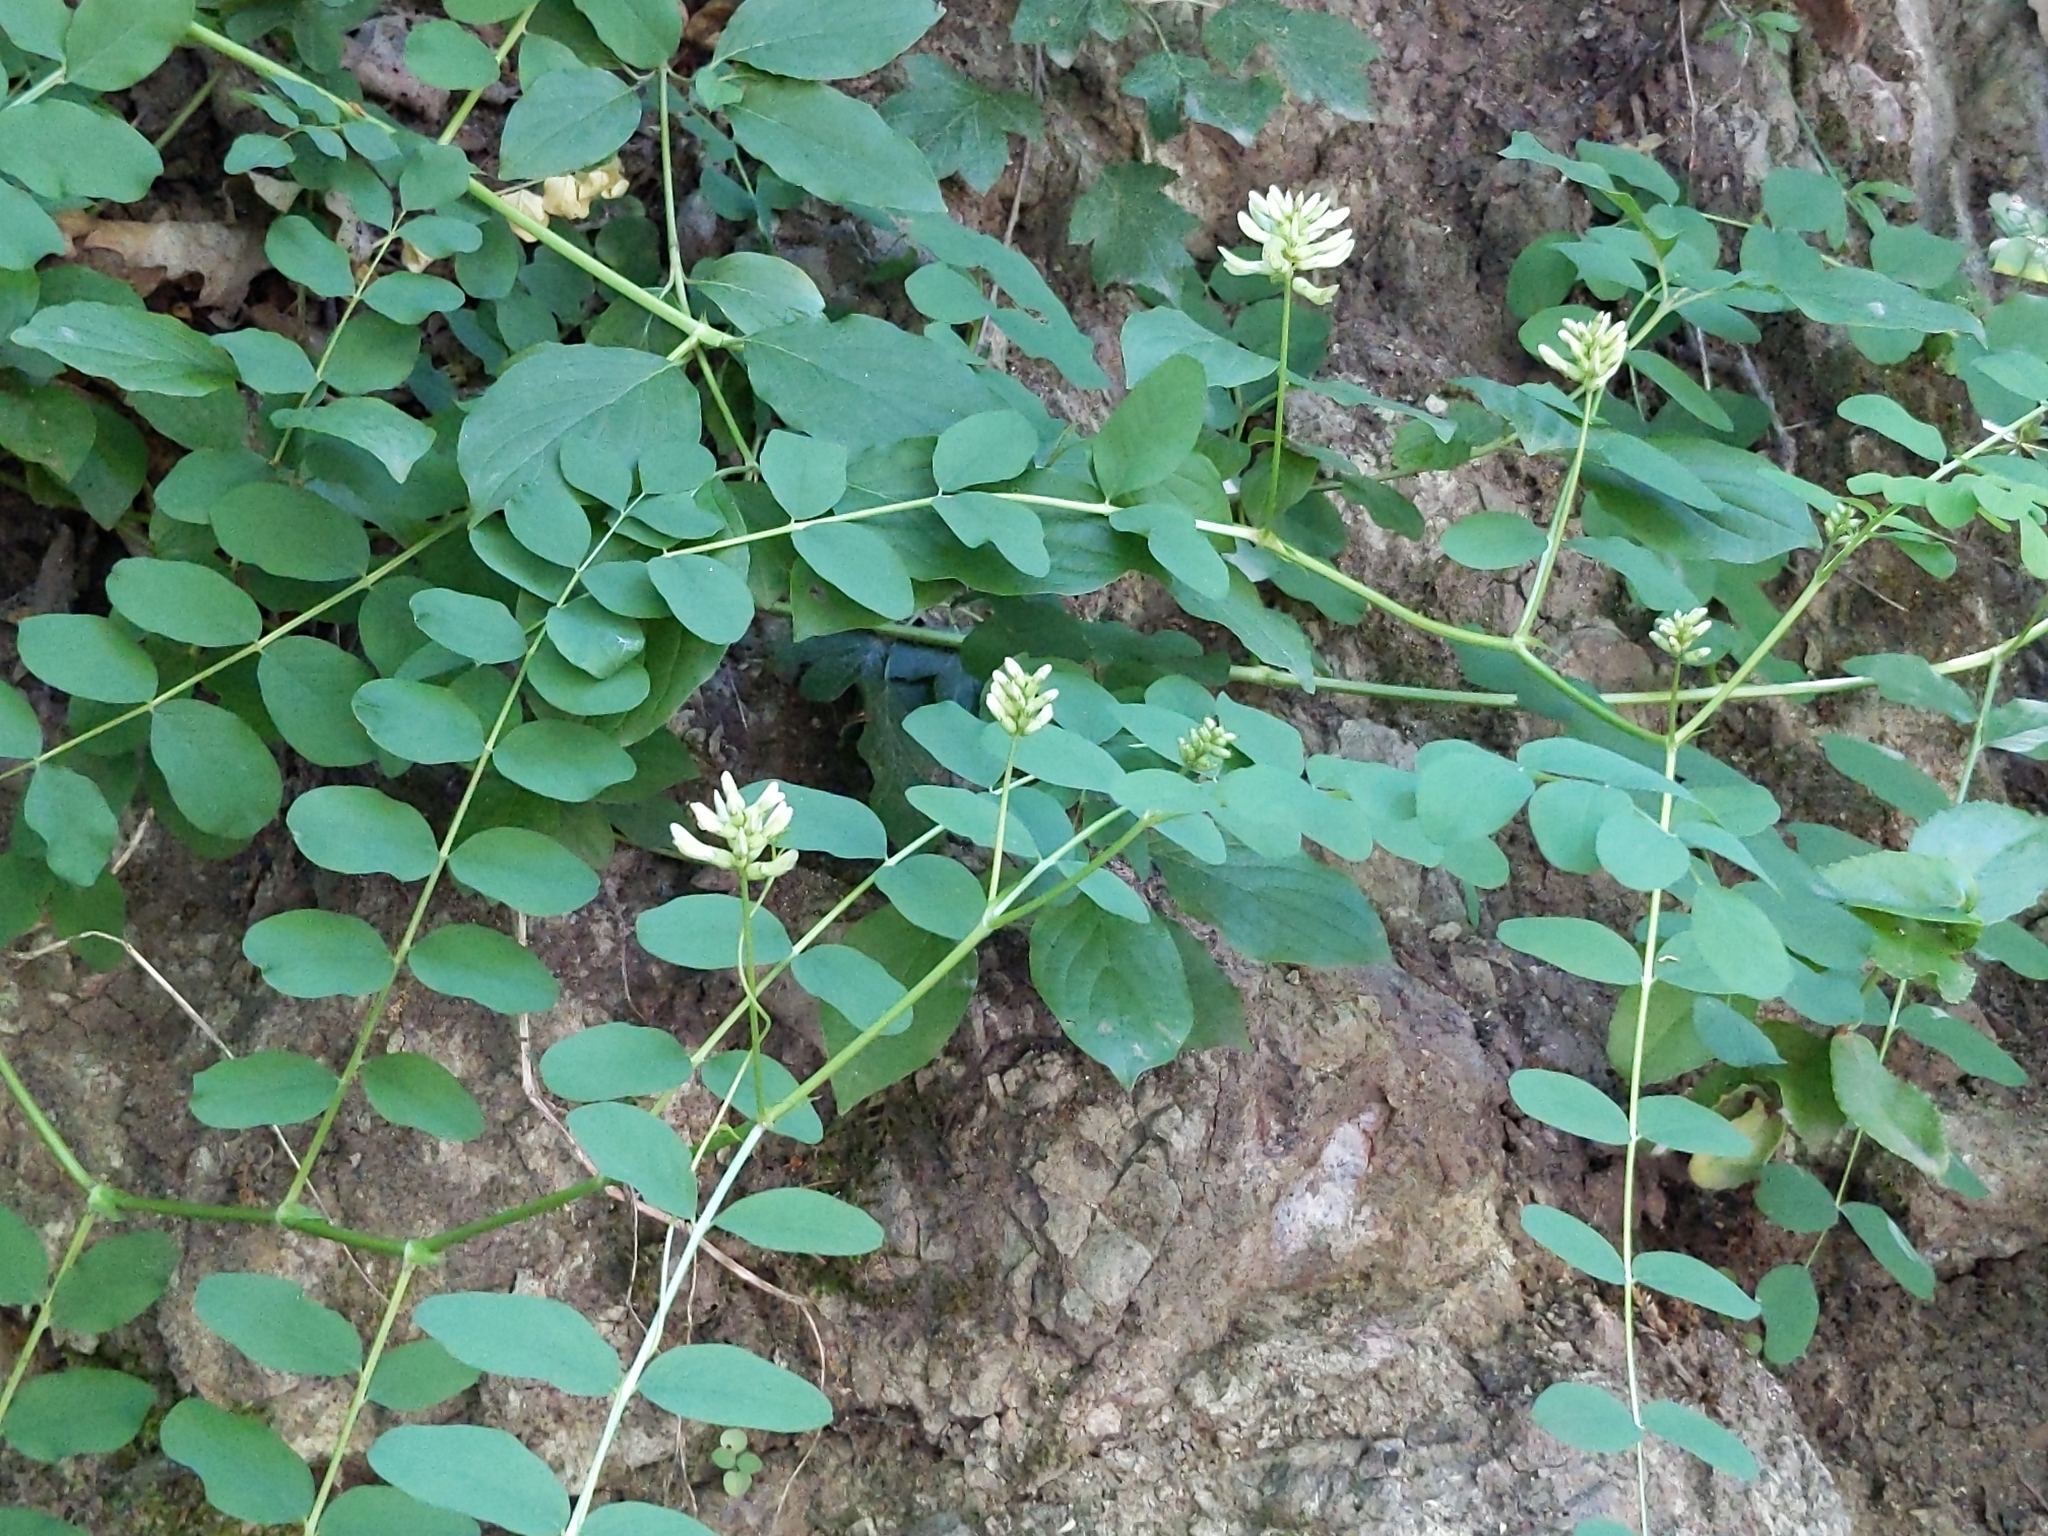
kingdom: Plantae
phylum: Tracheophyta
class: Magnoliopsida
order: Fabales
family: Fabaceae
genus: Astragalus
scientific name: Astragalus glycyphyllos
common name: Wild liquorice
